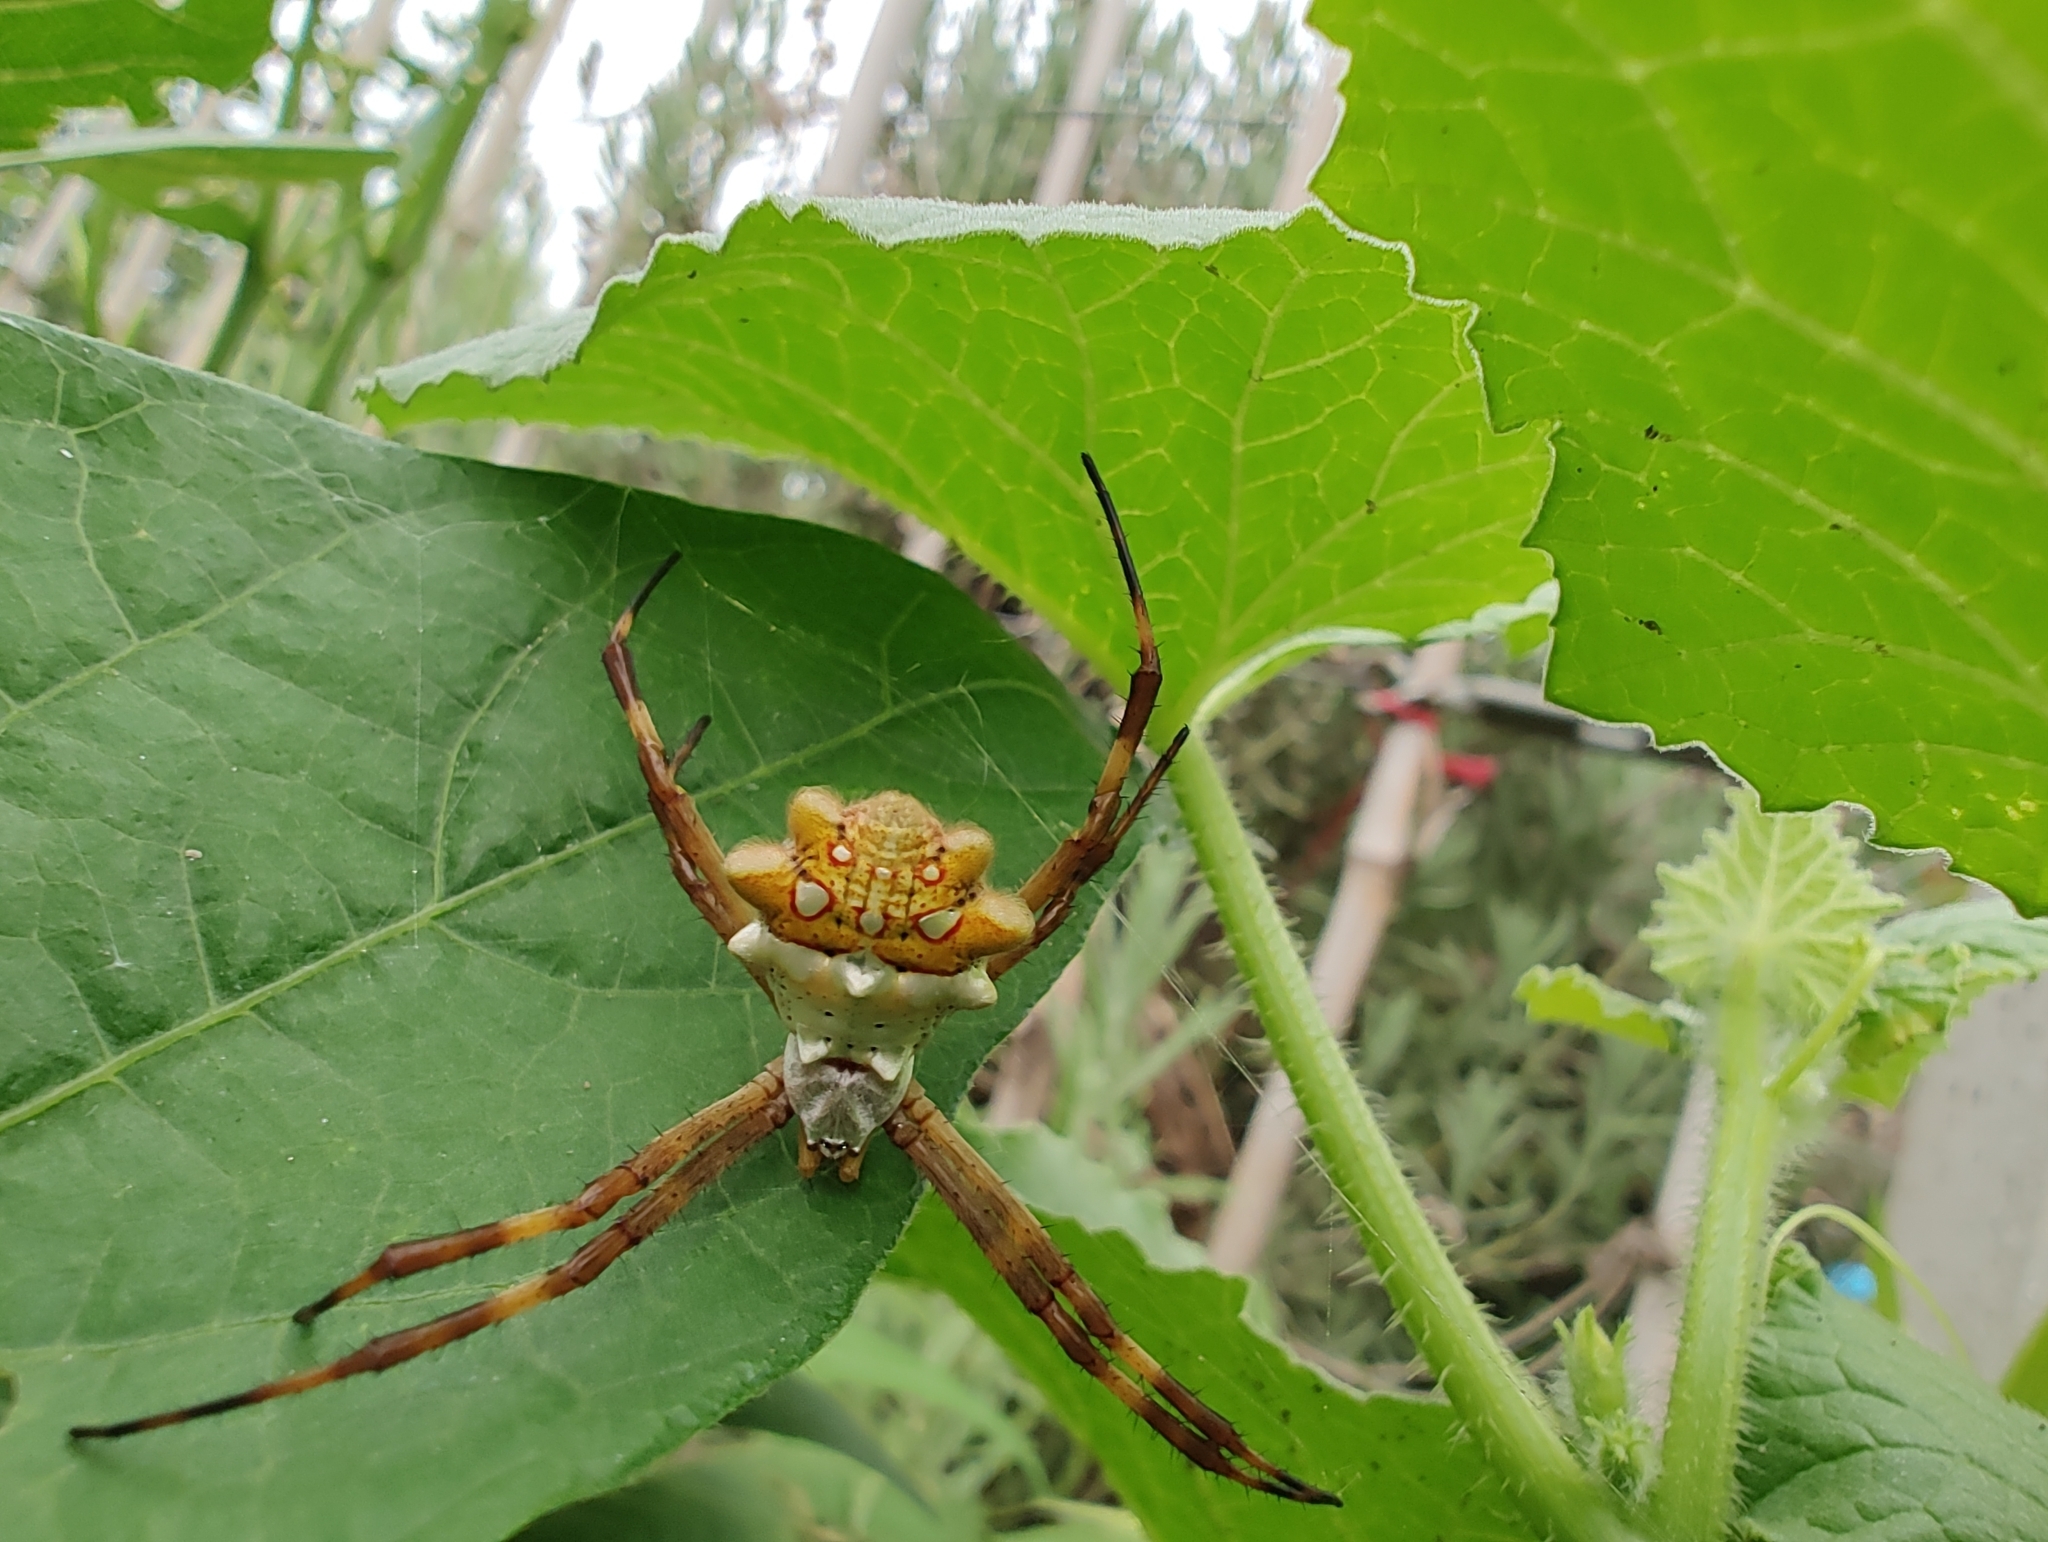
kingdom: Animalia
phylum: Arthropoda
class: Arachnida
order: Araneae
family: Araneidae
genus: Argiope
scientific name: Argiope argentata
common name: Orb weavers
